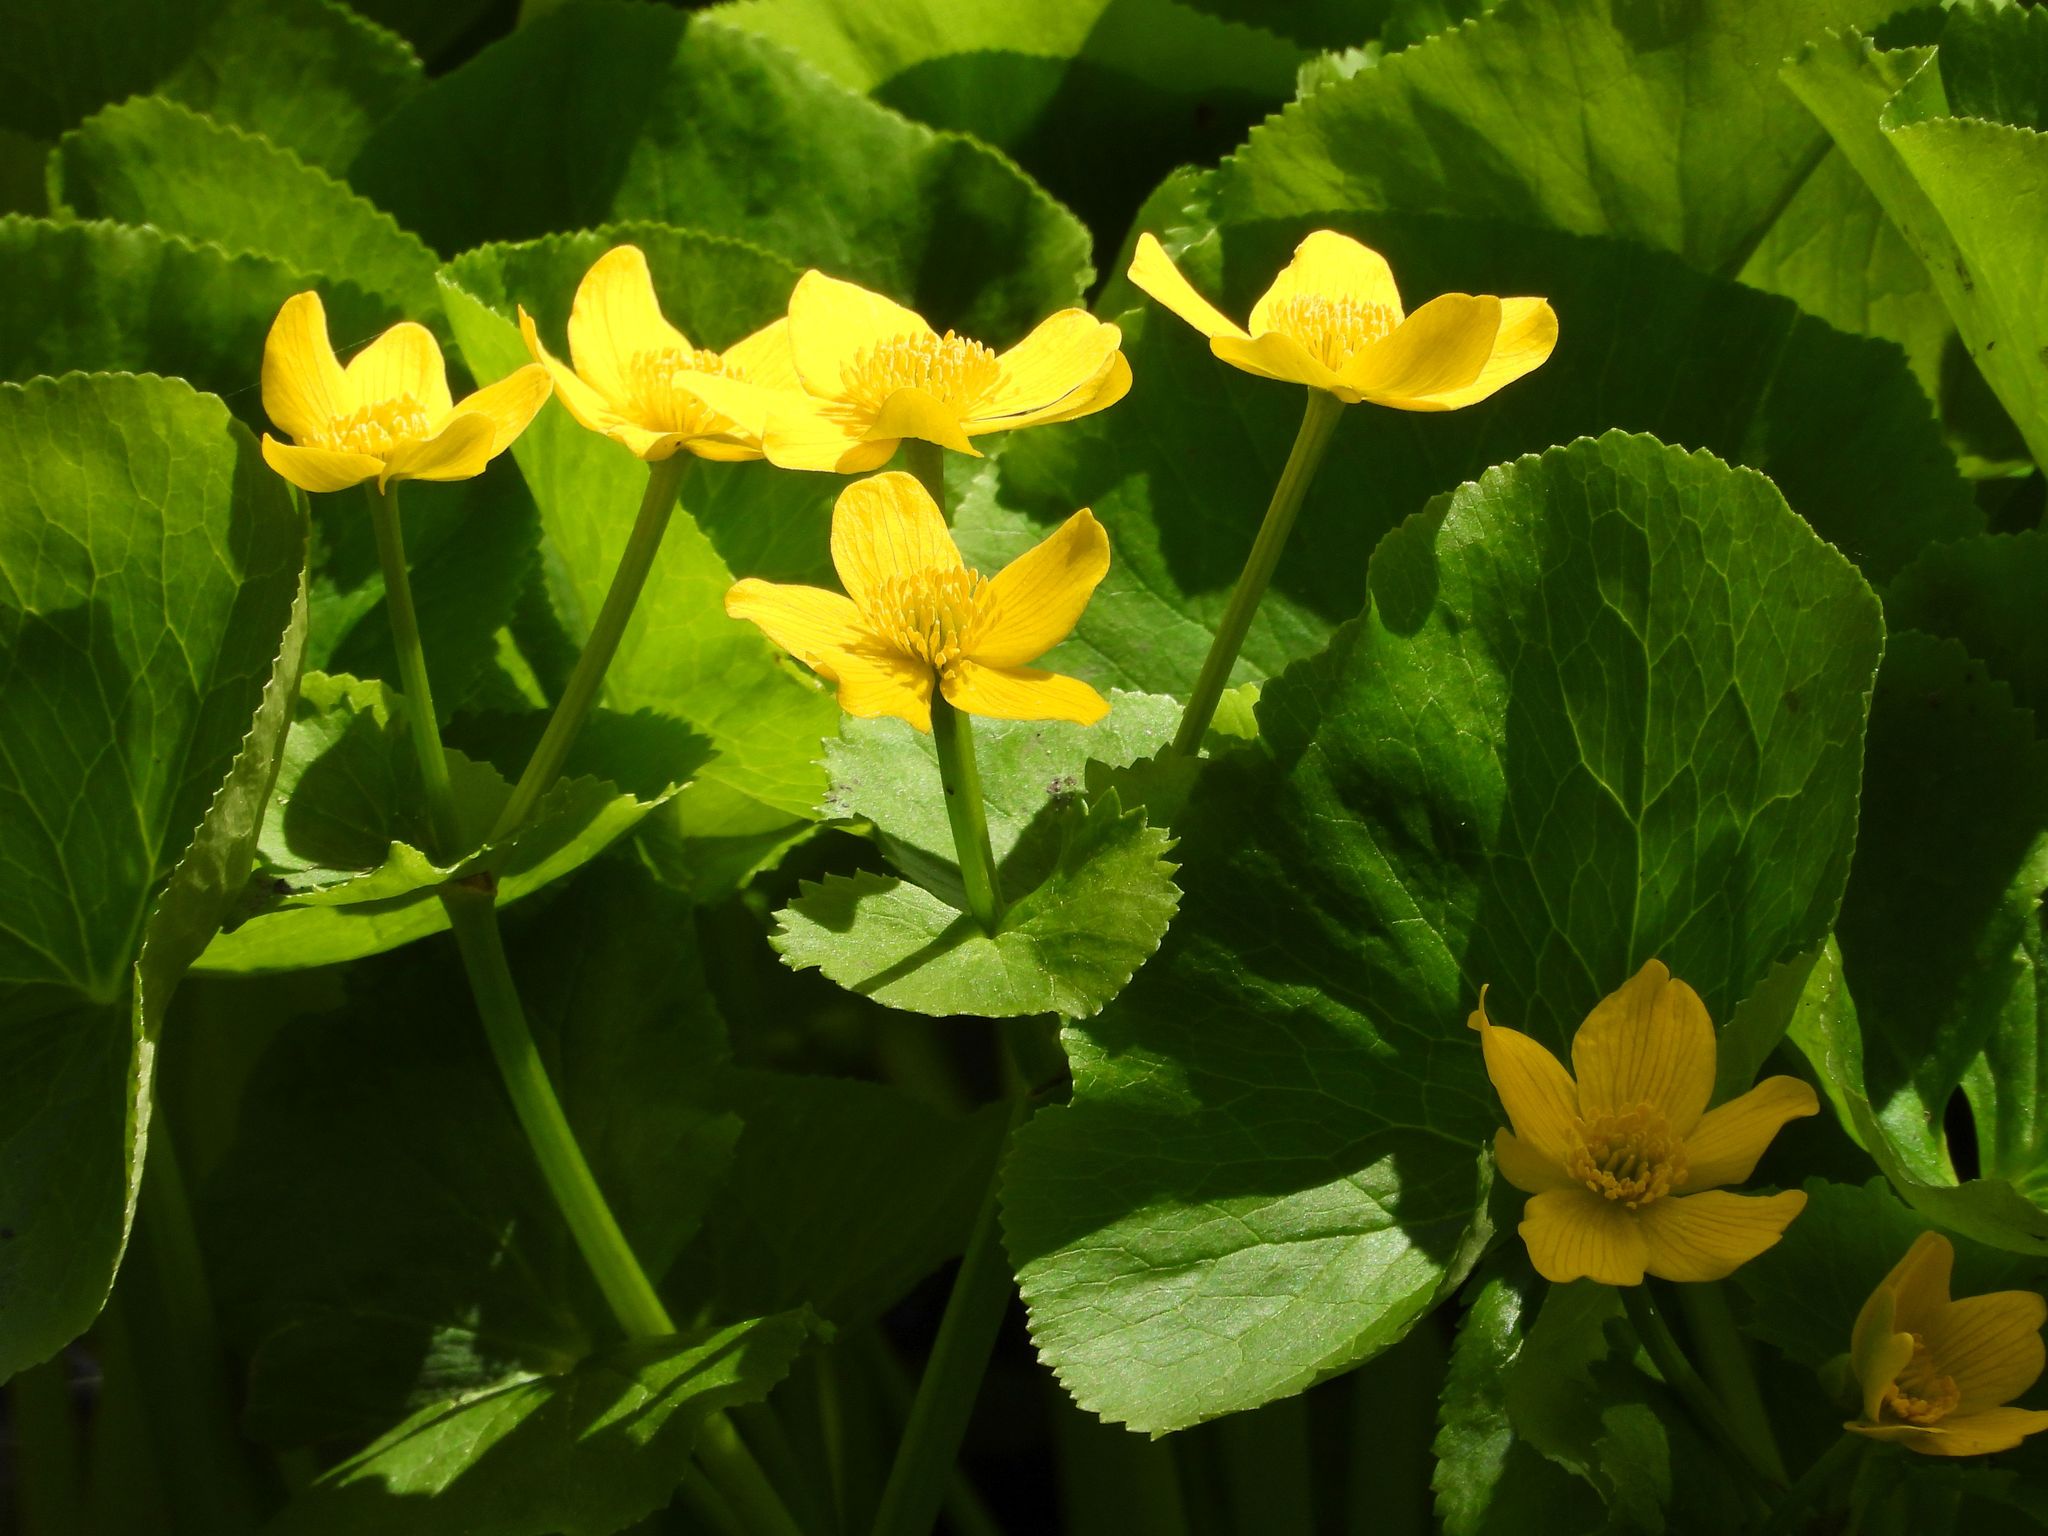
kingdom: Plantae
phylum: Tracheophyta
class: Magnoliopsida
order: Ranunculales
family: Ranunculaceae
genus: Caltha
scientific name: Caltha palustris
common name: Marsh marigold
